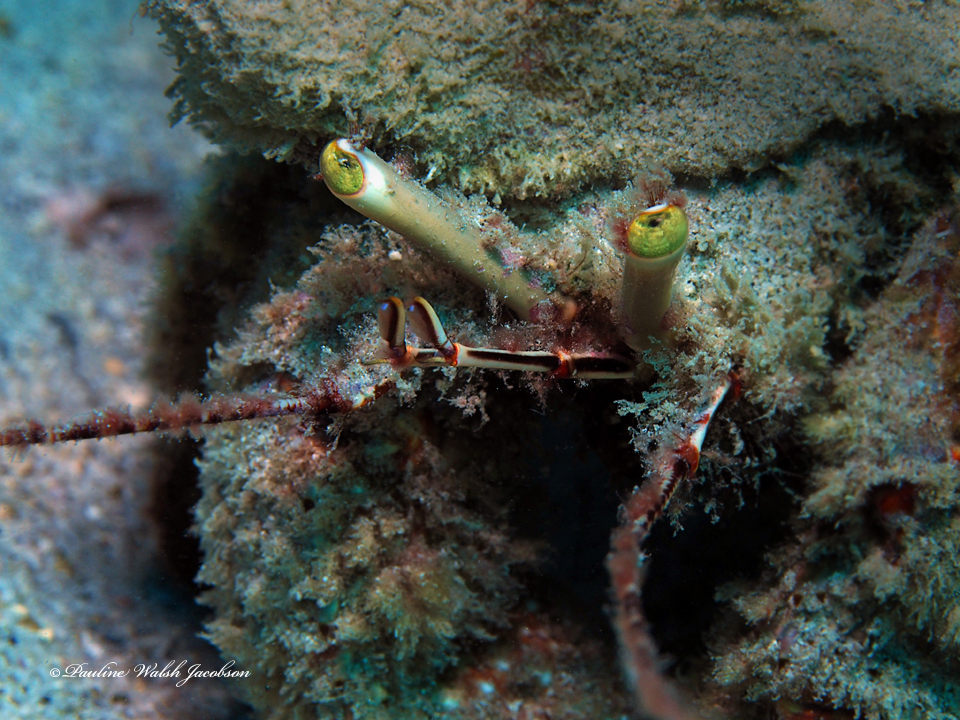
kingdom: Animalia
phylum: Arthropoda
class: Malacostraca
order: Decapoda
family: Diogenidae
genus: Petrochirus
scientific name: Petrochirus diogenes
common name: Giant hermit crab
